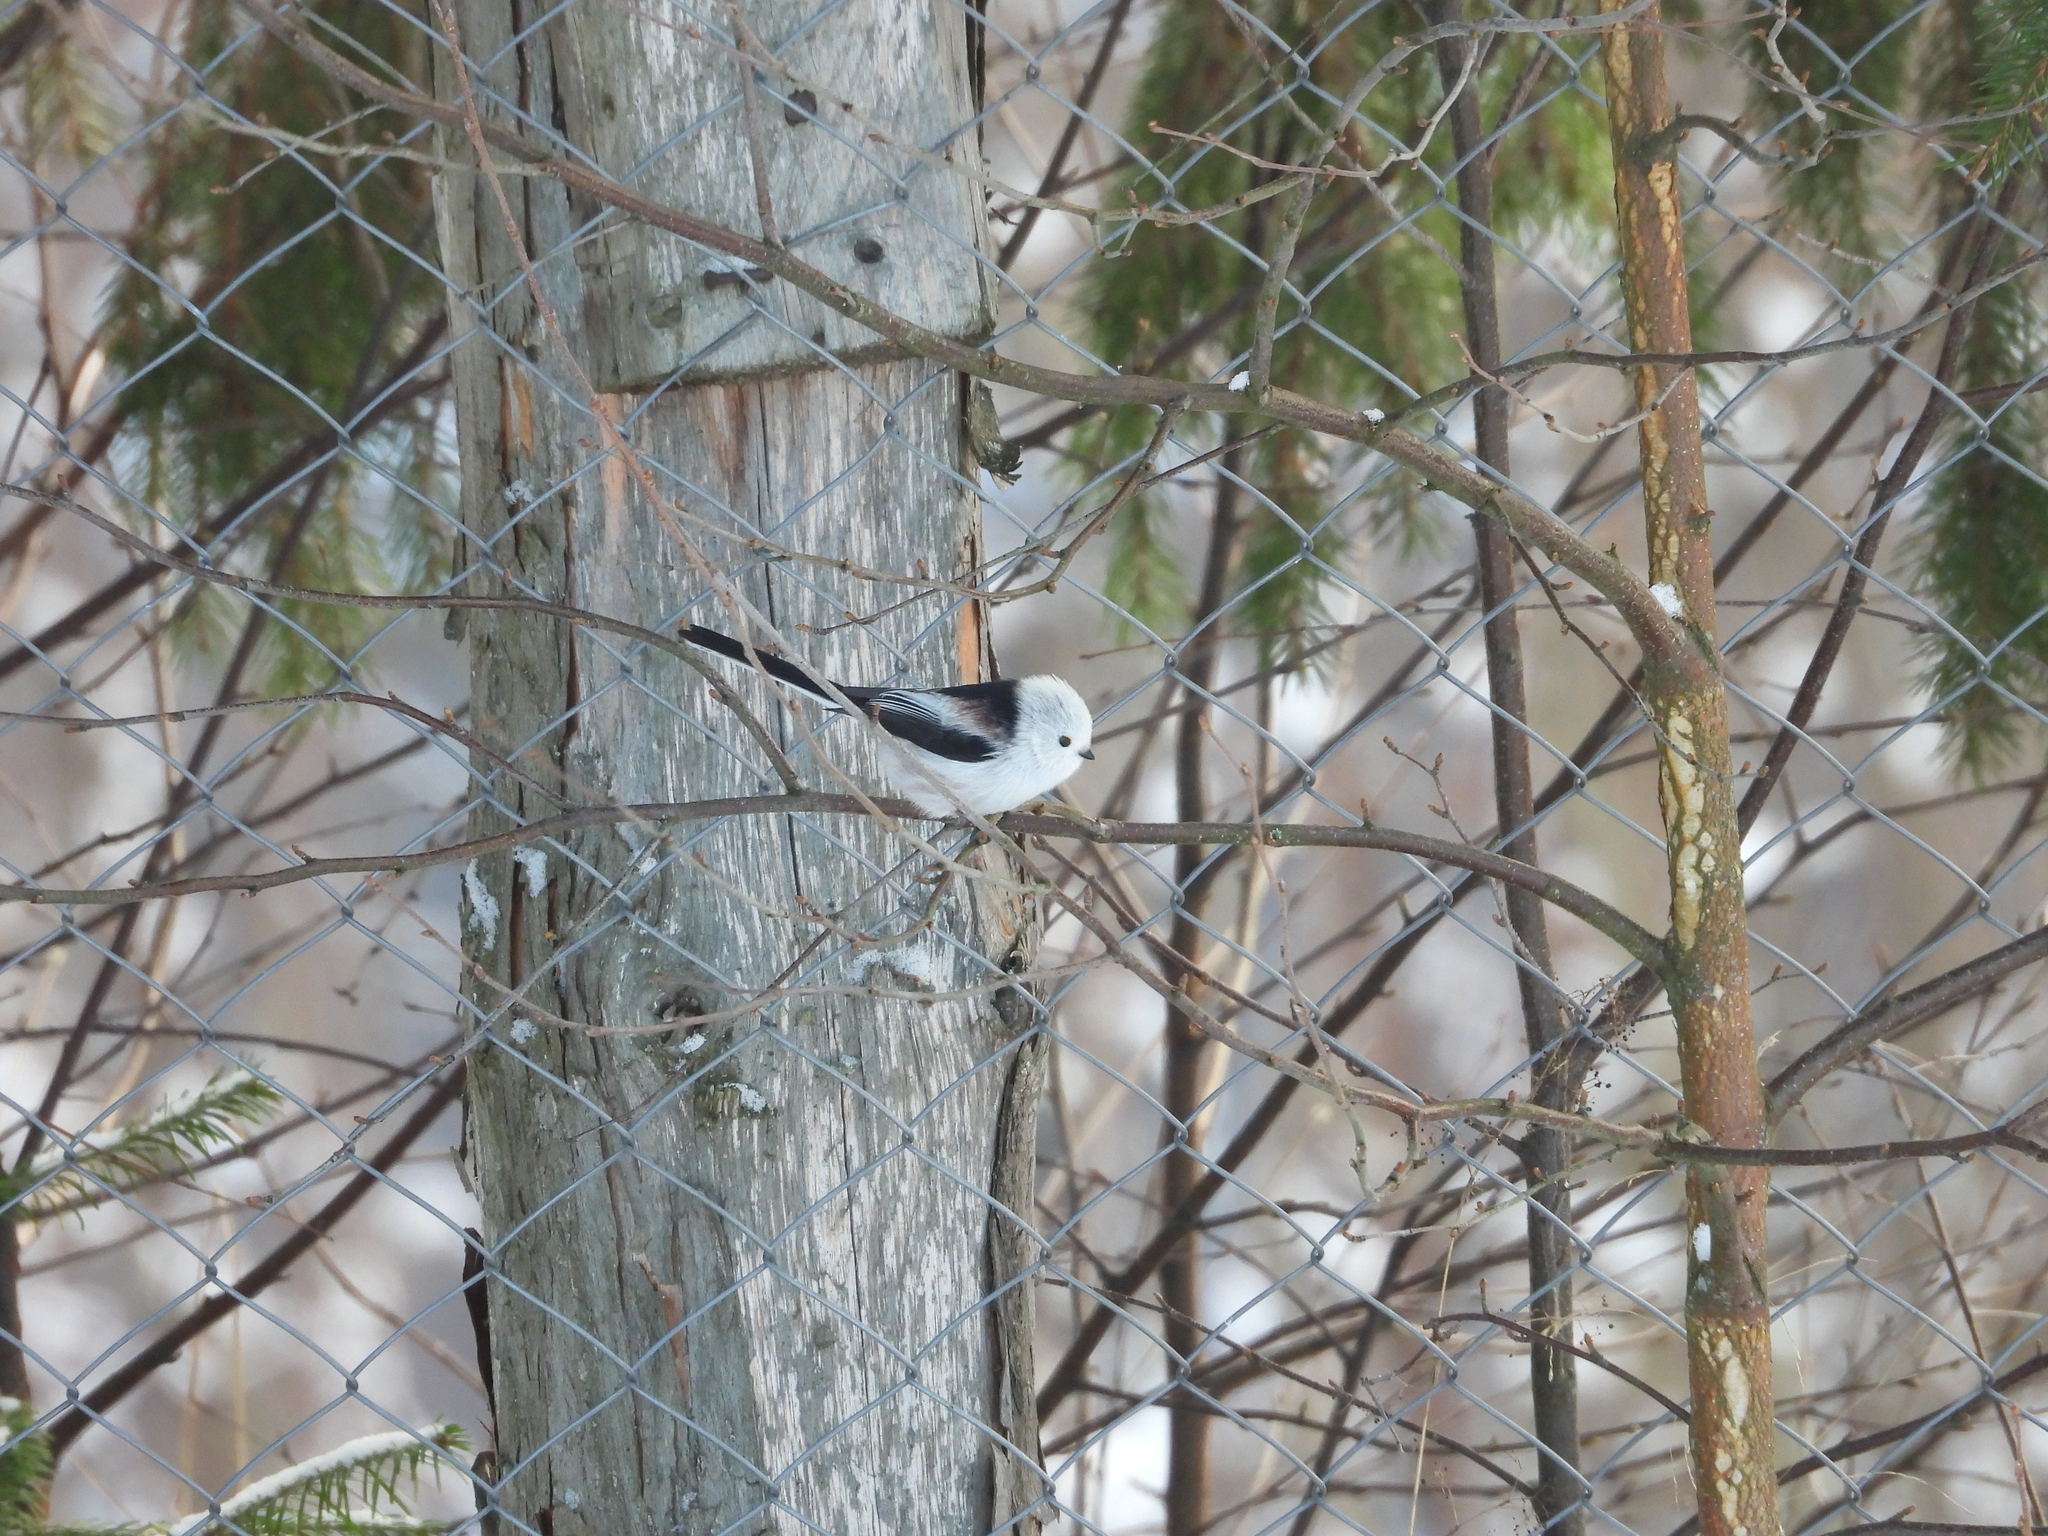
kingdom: Animalia
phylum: Chordata
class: Aves
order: Passeriformes
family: Aegithalidae
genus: Aegithalos
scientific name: Aegithalos caudatus
